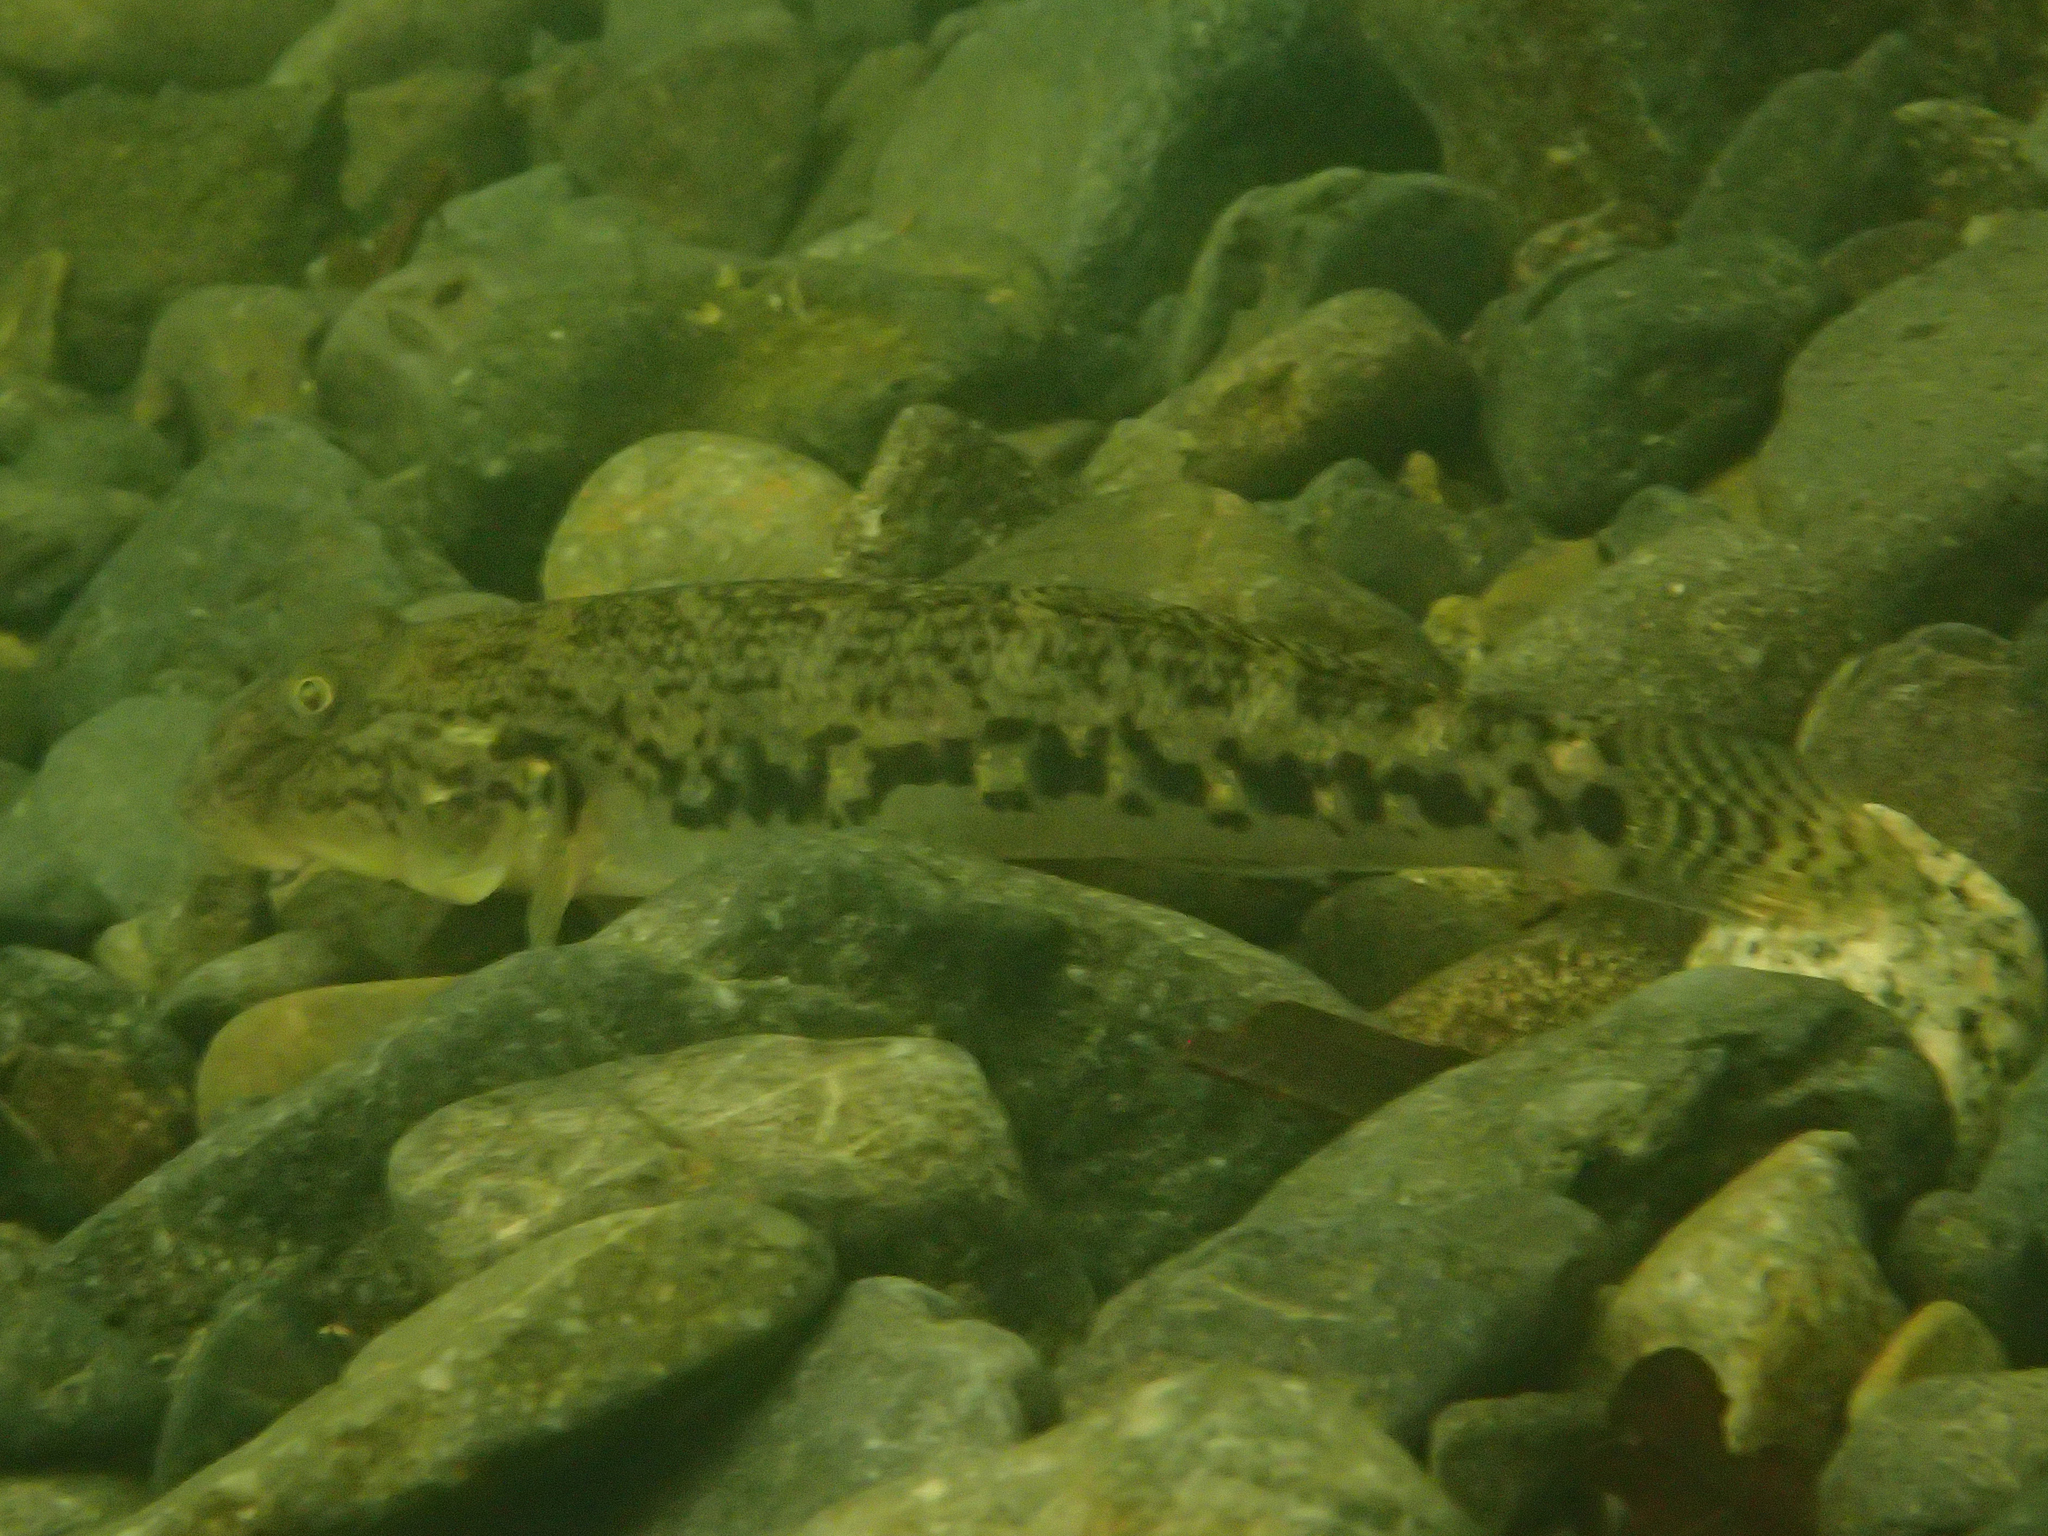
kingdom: Animalia
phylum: Chordata
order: Perciformes
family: Gobiidae
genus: Awaous
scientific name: Awaous acritosus
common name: Roman nose goby
